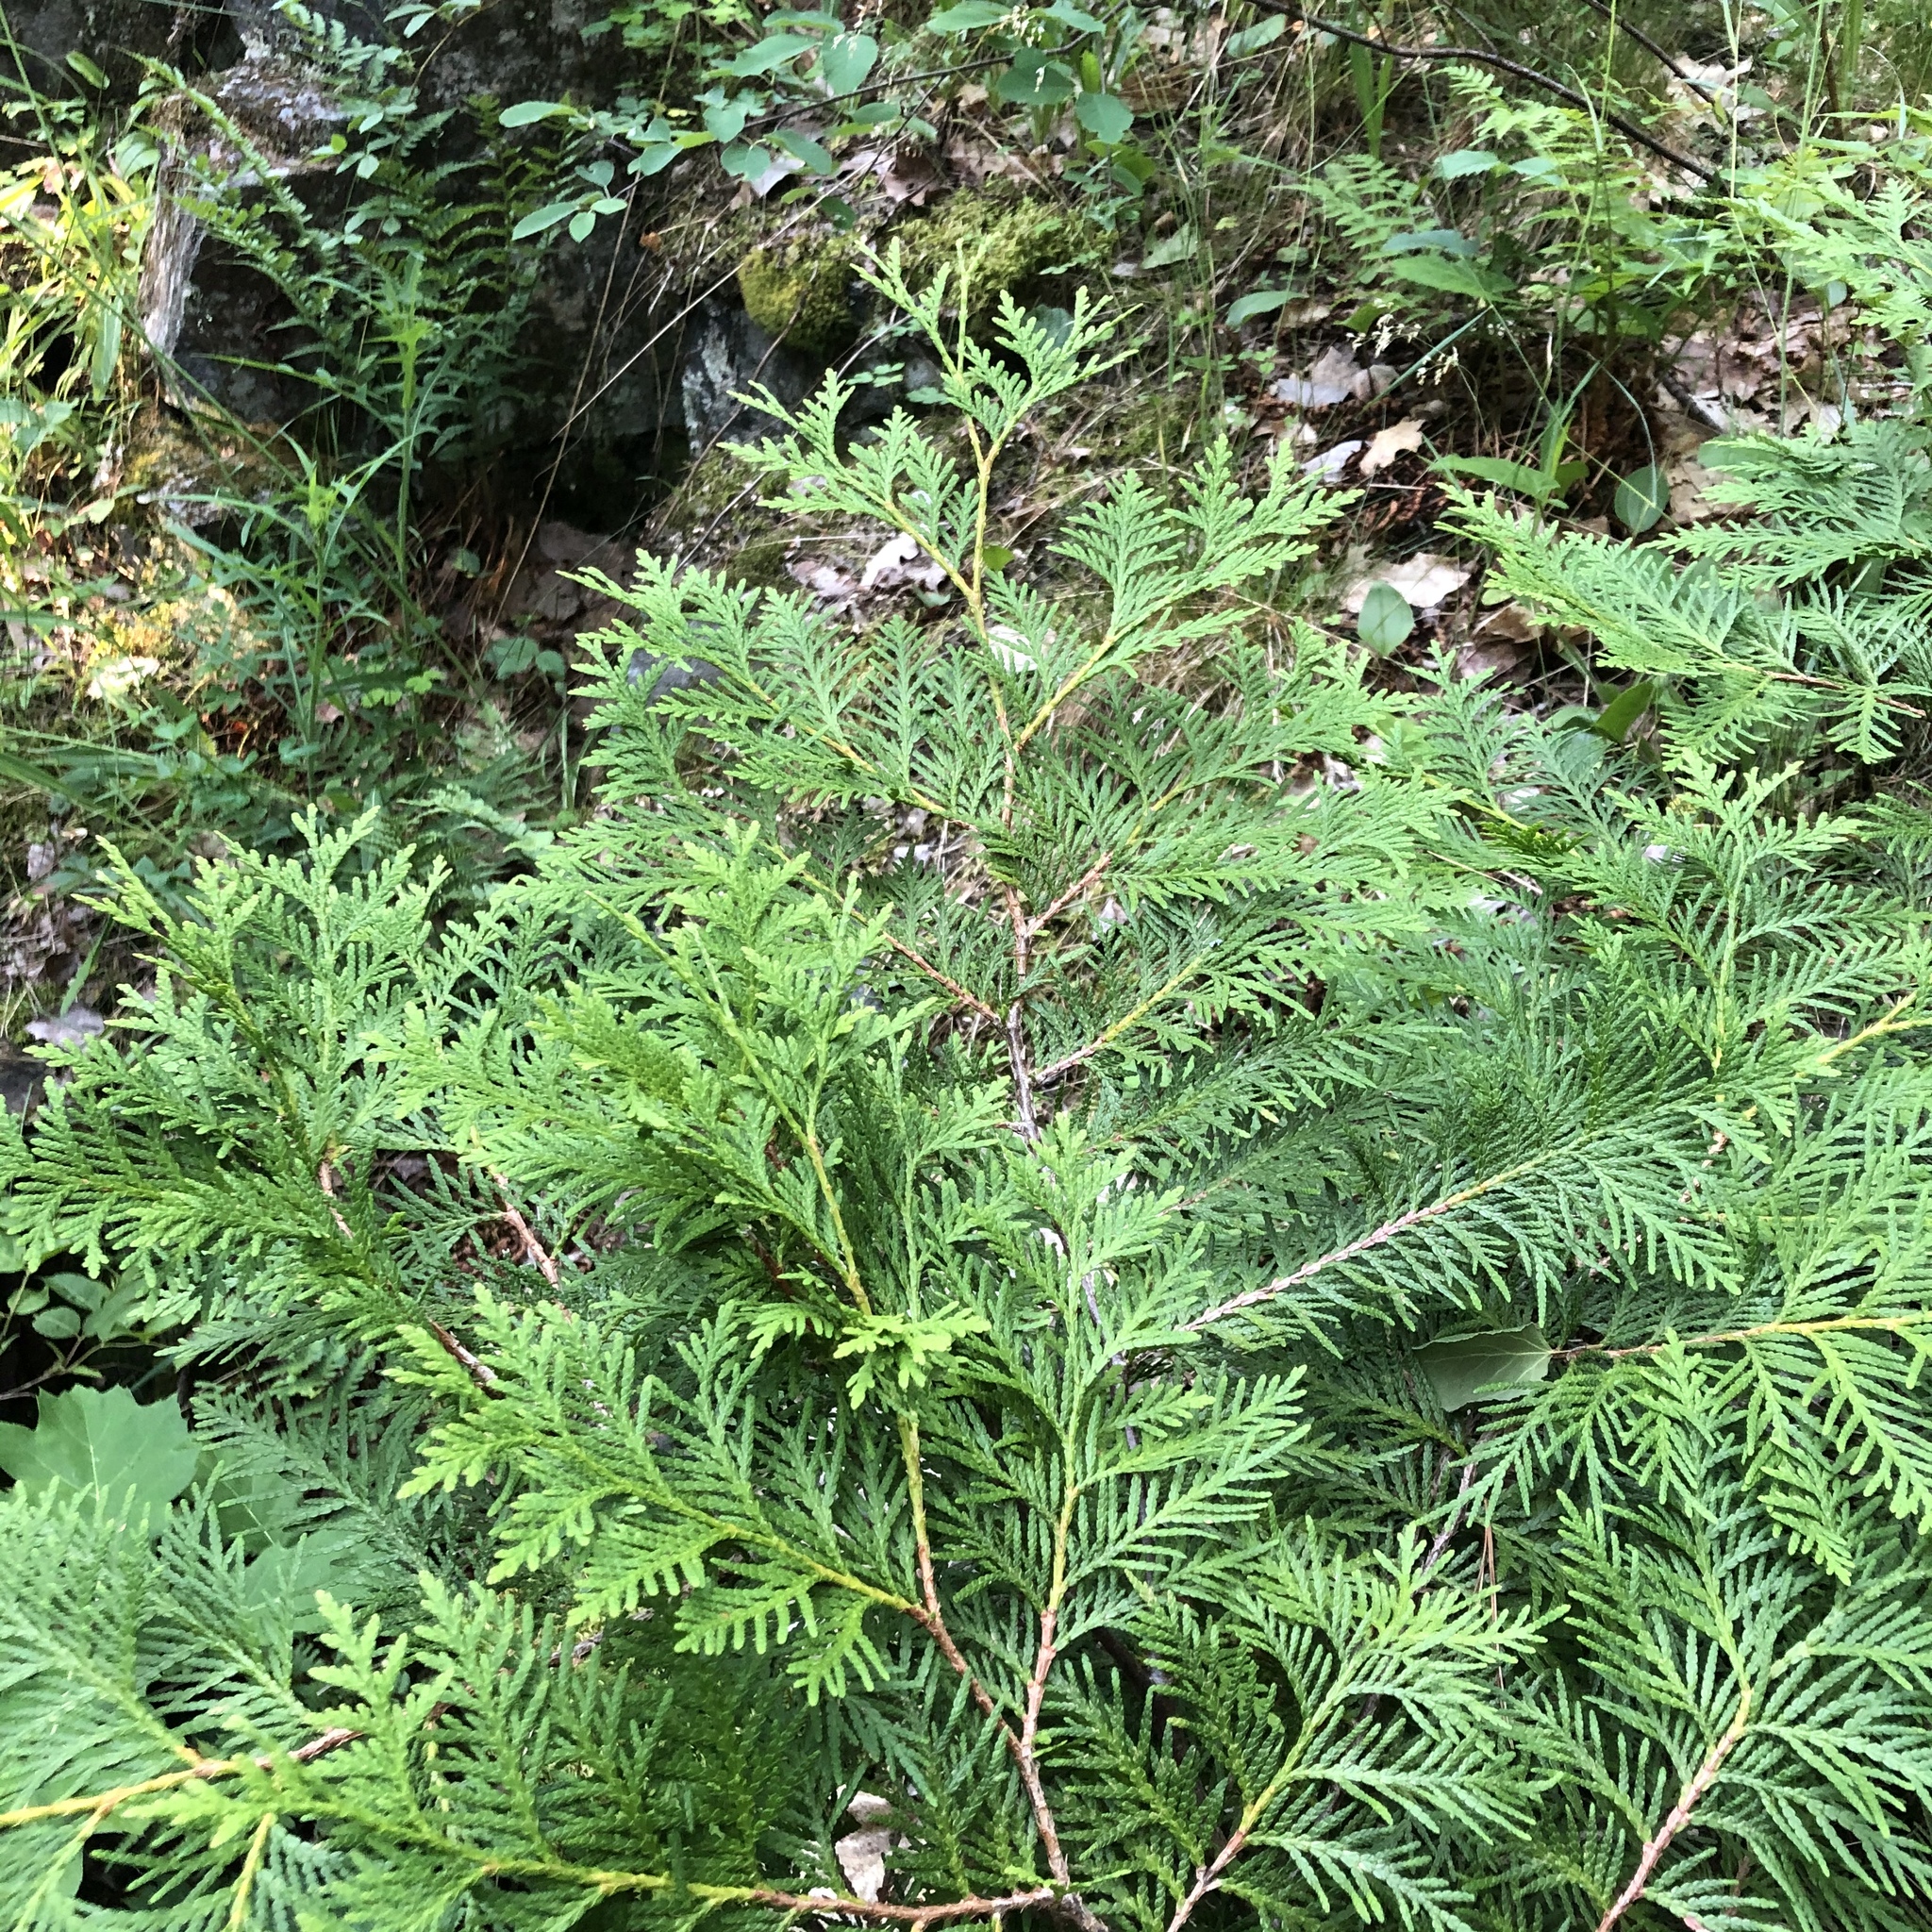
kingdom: Plantae
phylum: Tracheophyta
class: Pinopsida
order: Pinales
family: Cupressaceae
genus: Thuja
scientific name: Thuja occidentalis
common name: Northern white-cedar
